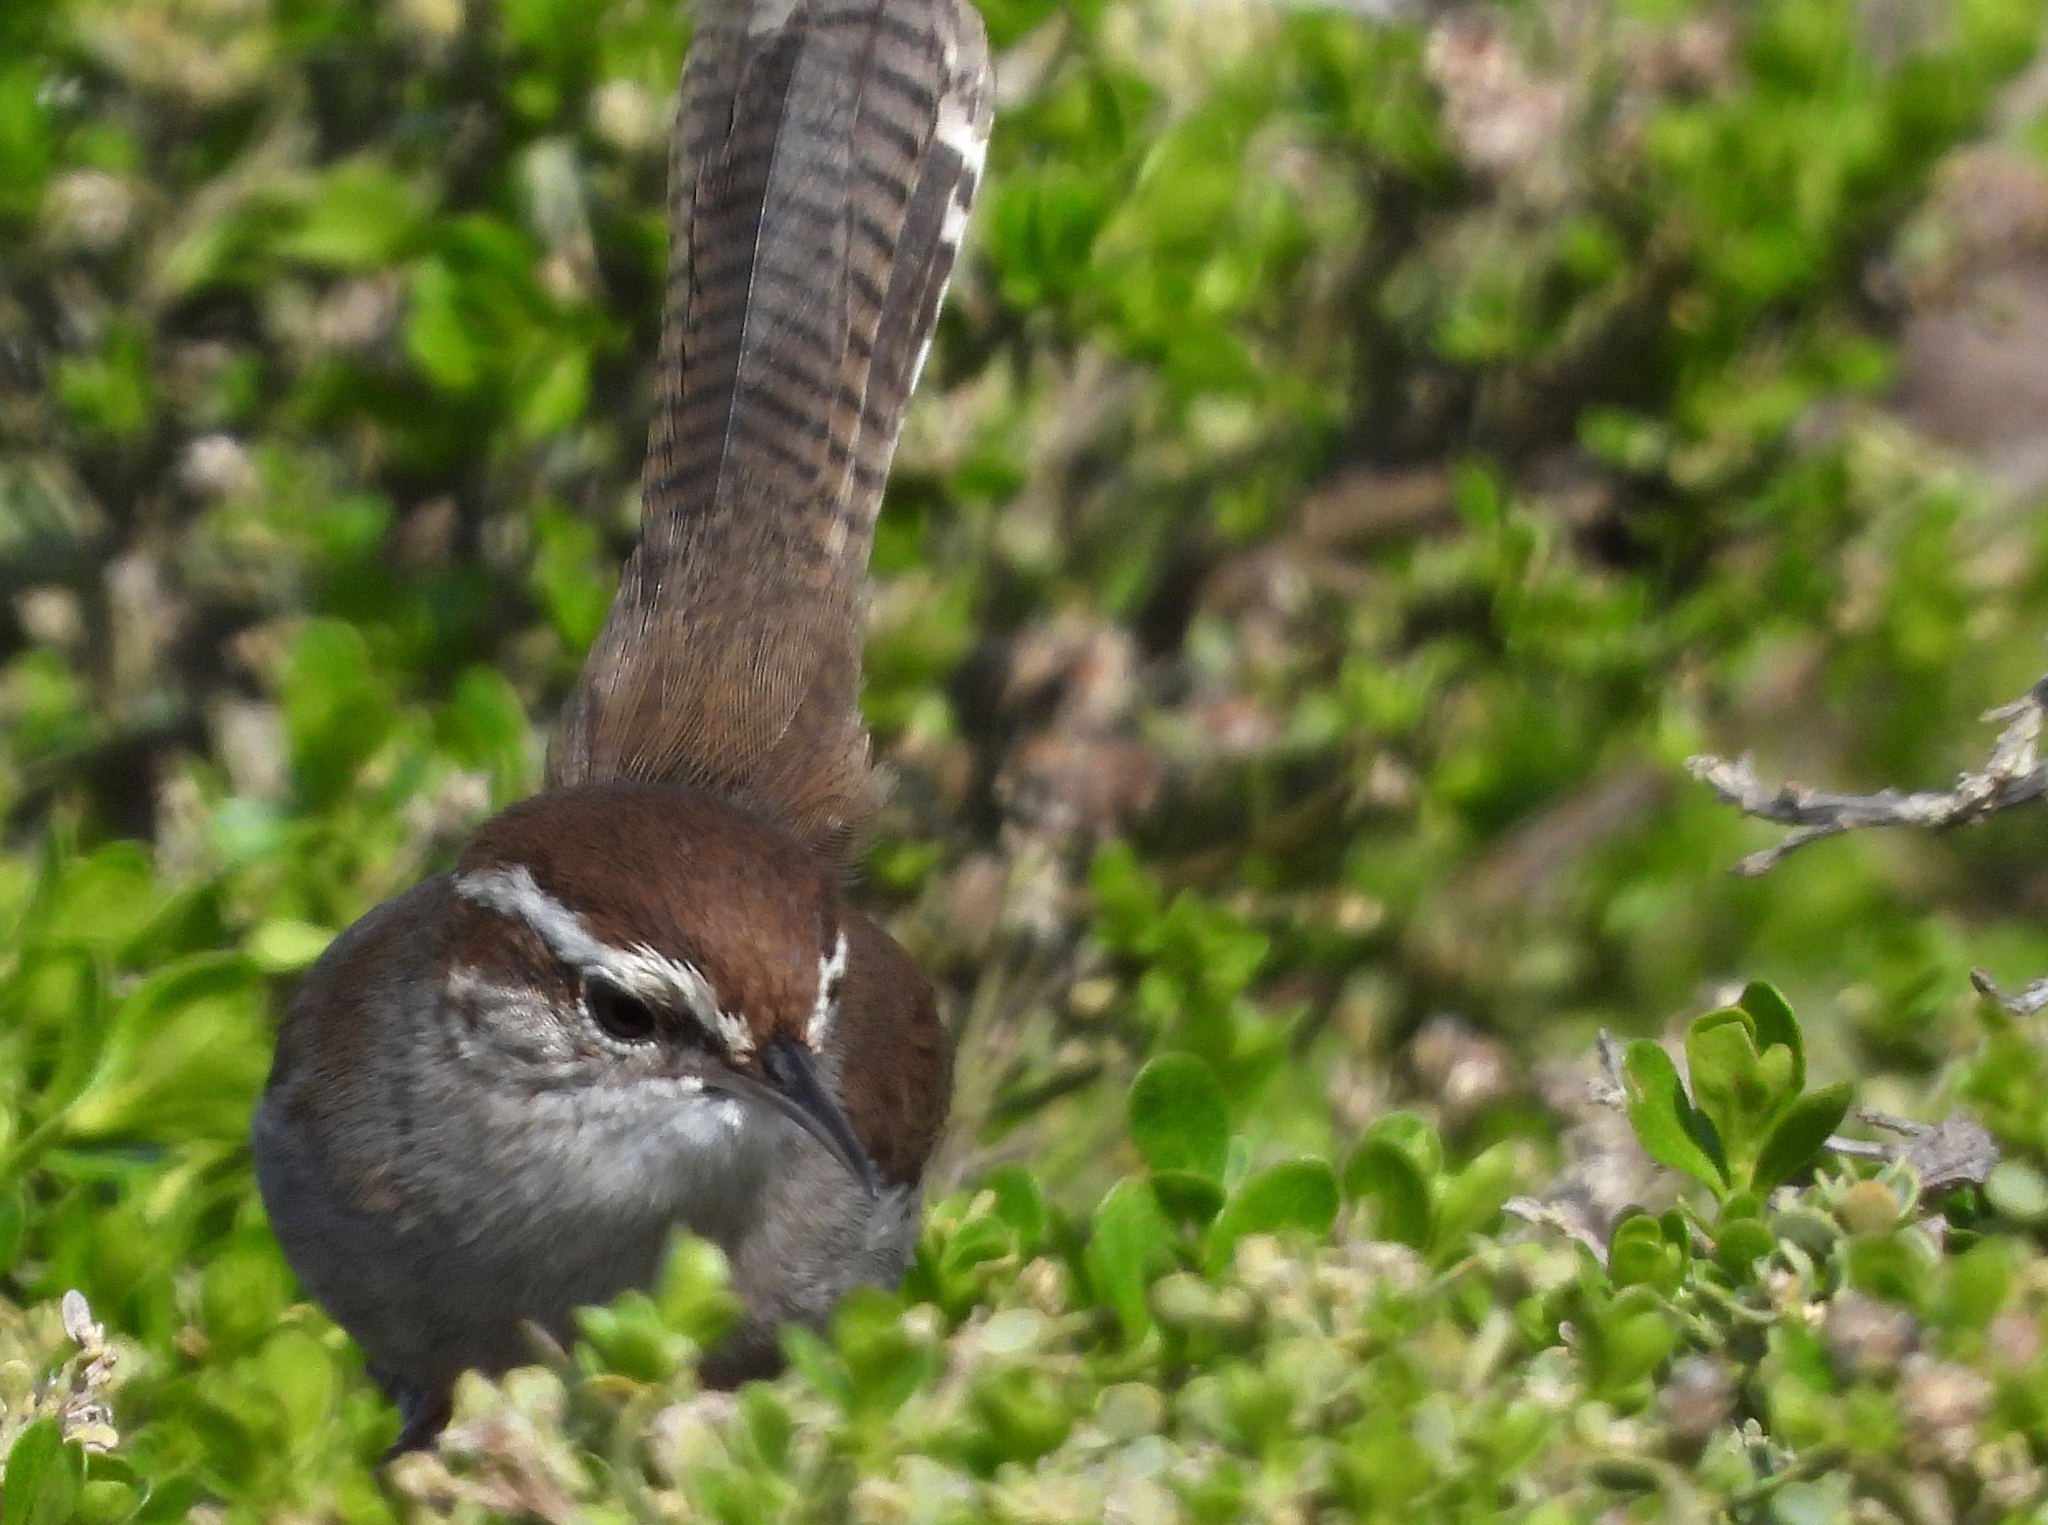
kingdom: Animalia
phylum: Chordata
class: Aves
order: Passeriformes
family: Troglodytidae
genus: Thryomanes
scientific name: Thryomanes bewickii
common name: Bewick's wren
